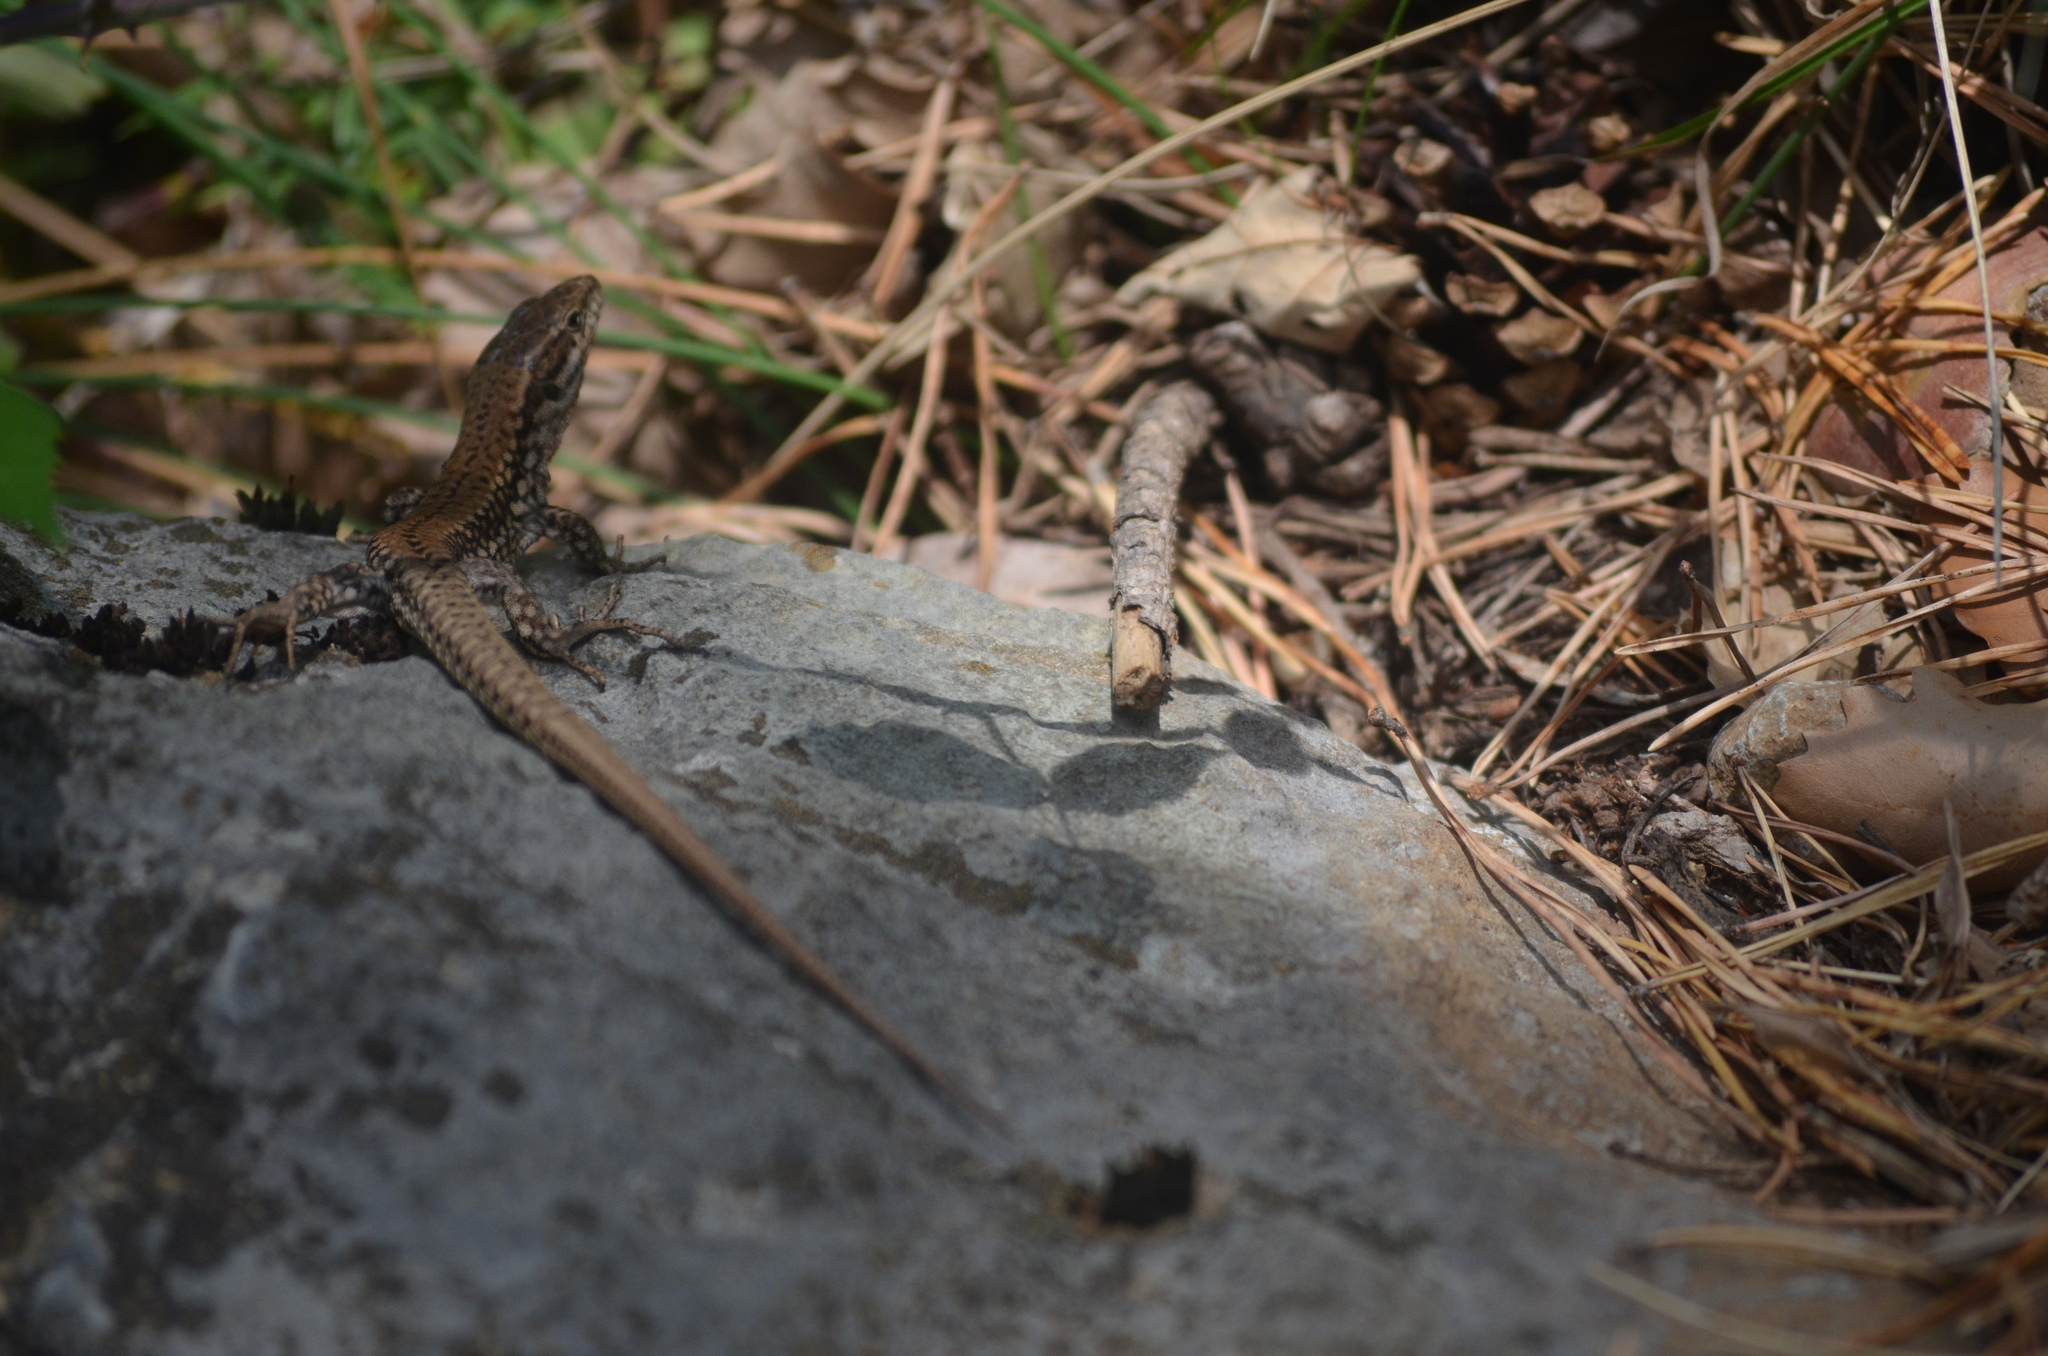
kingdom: Animalia
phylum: Chordata
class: Squamata
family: Lacertidae
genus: Podarcis
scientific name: Podarcis muralis
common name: Common wall lizard
